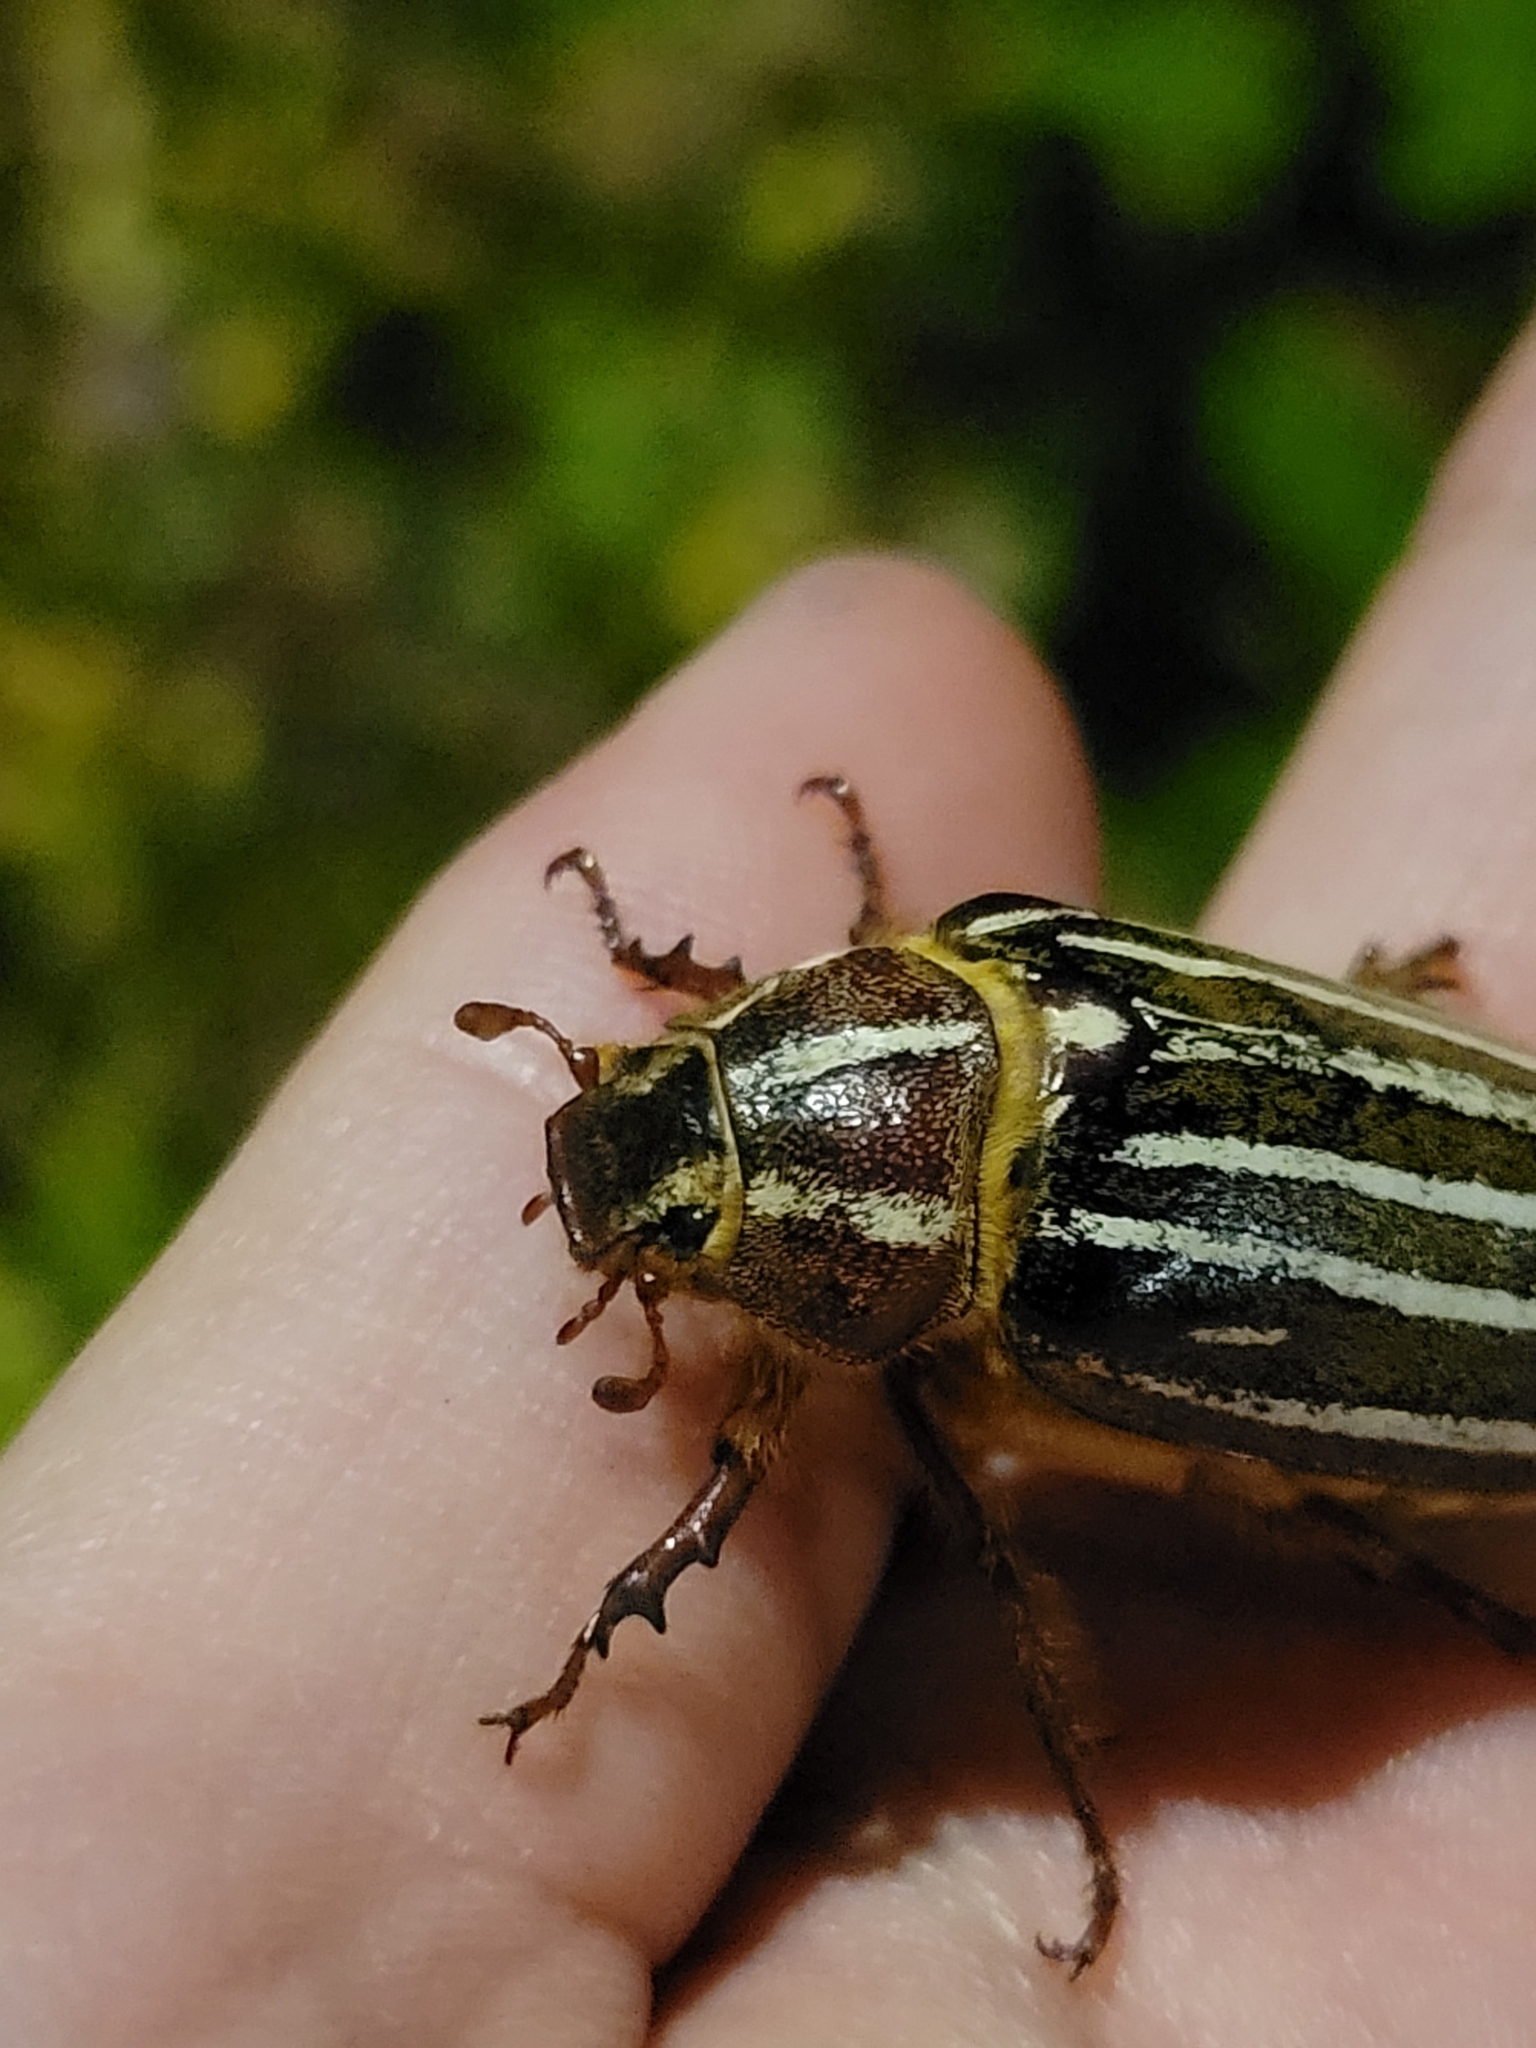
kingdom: Animalia
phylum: Arthropoda
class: Insecta
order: Coleoptera
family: Scarabaeidae
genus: Polyphylla
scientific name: Polyphylla crinita
